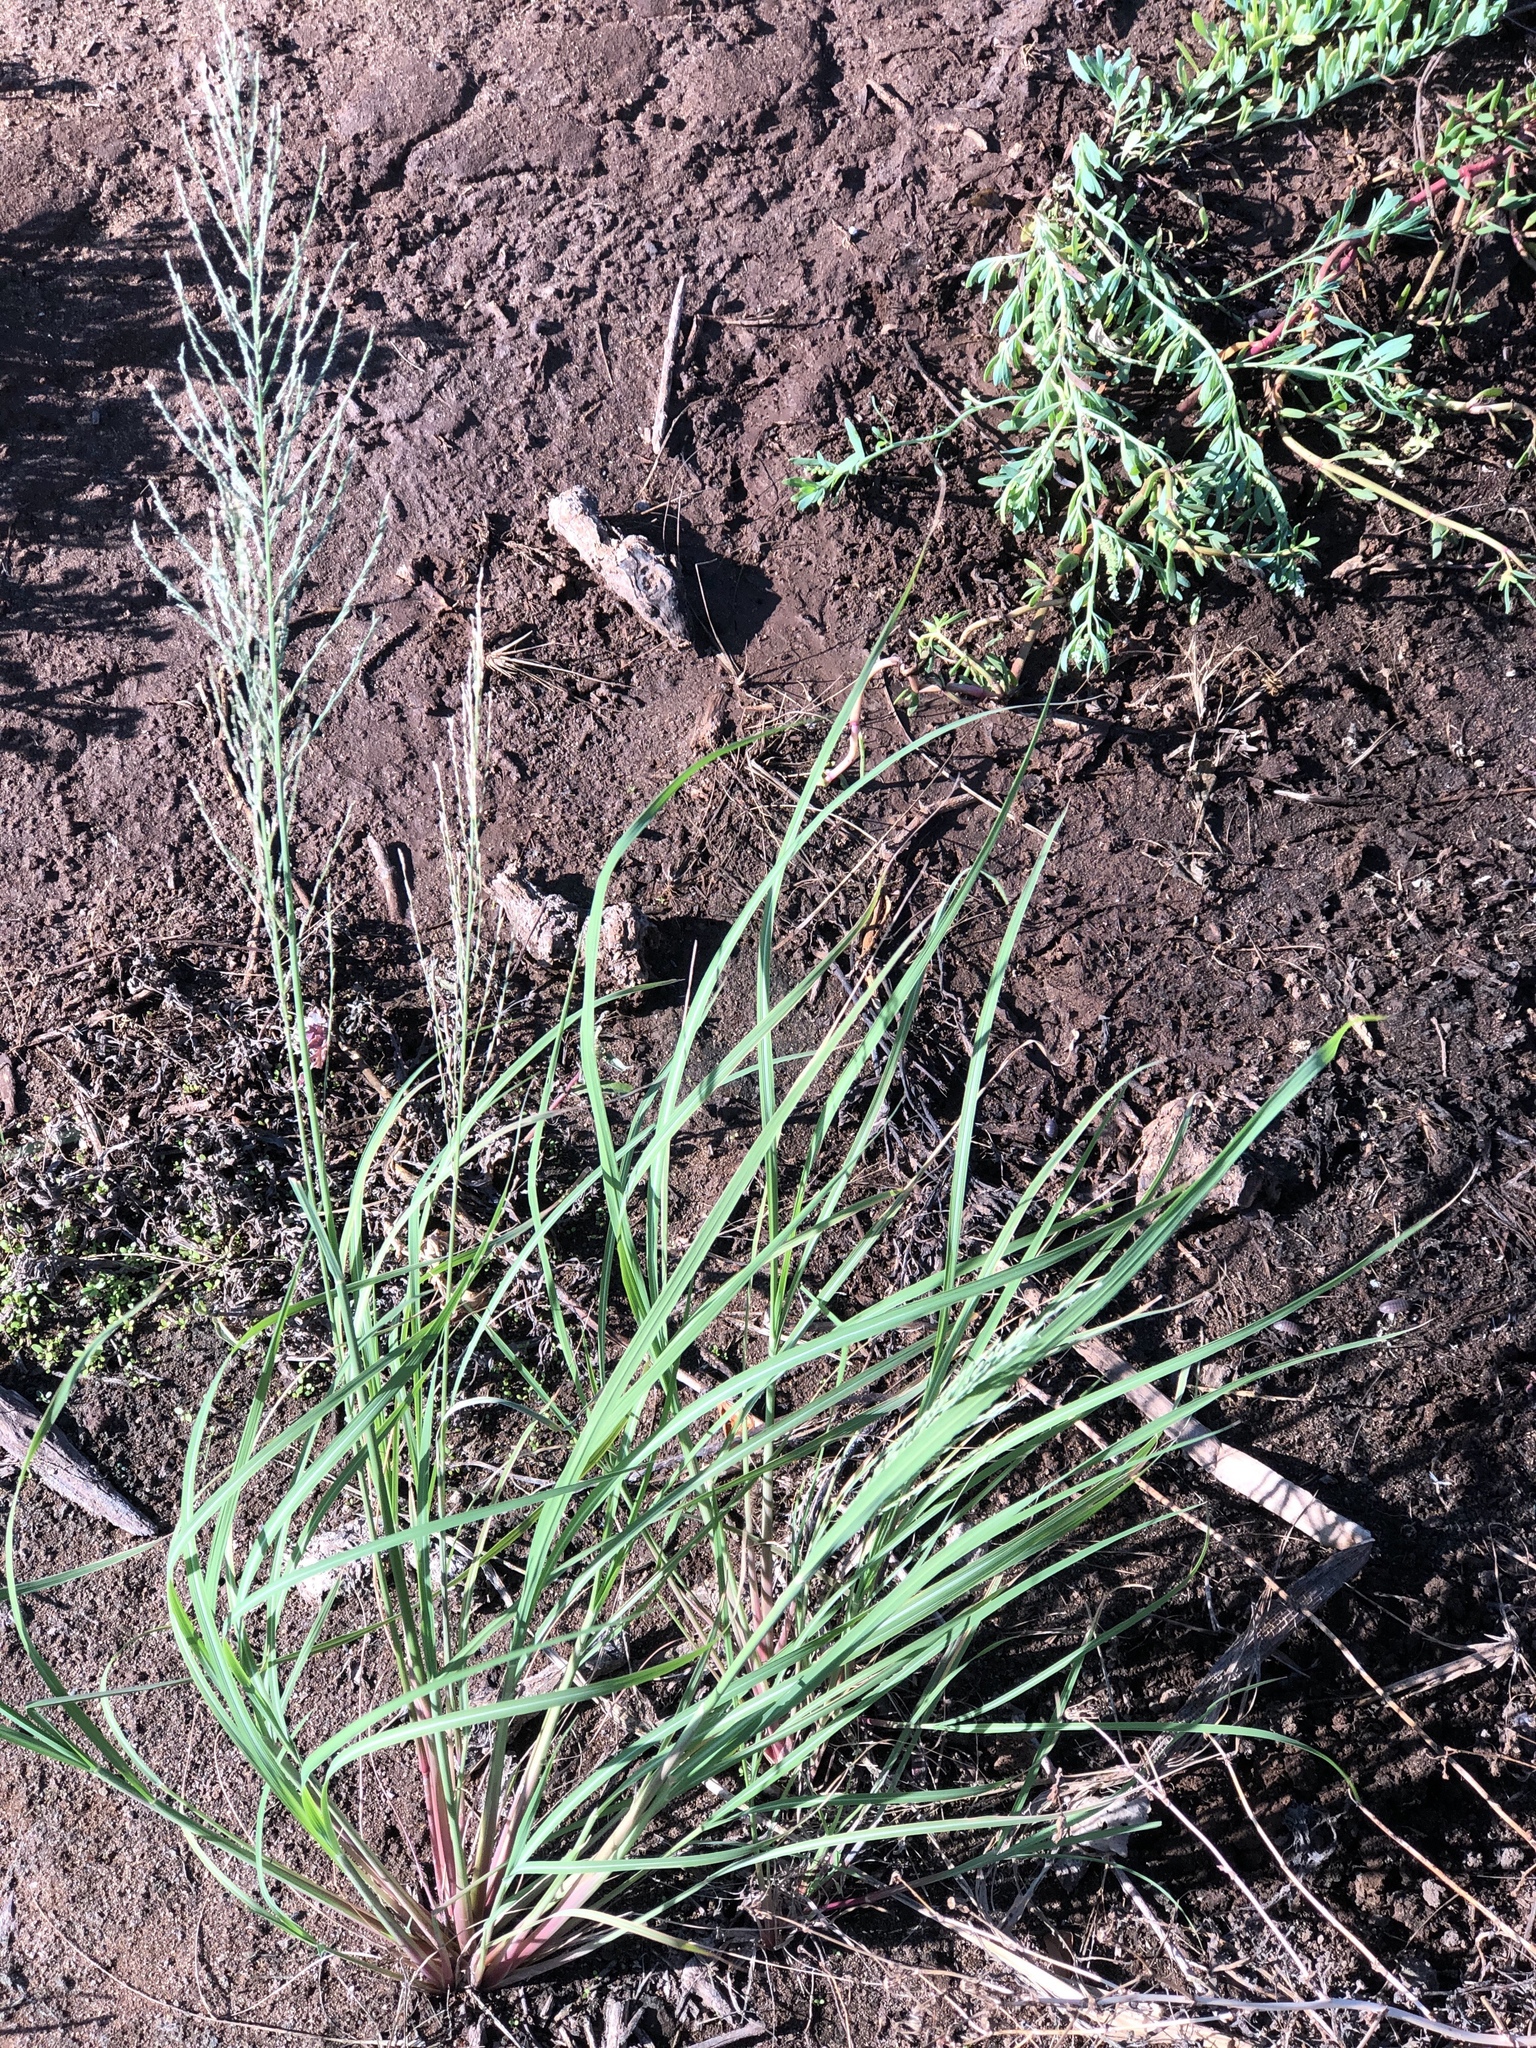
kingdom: Plantae
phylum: Tracheophyta
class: Liliopsida
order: Poales
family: Poaceae
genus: Diplachne
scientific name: Diplachne fusca
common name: Brown beetle grass
